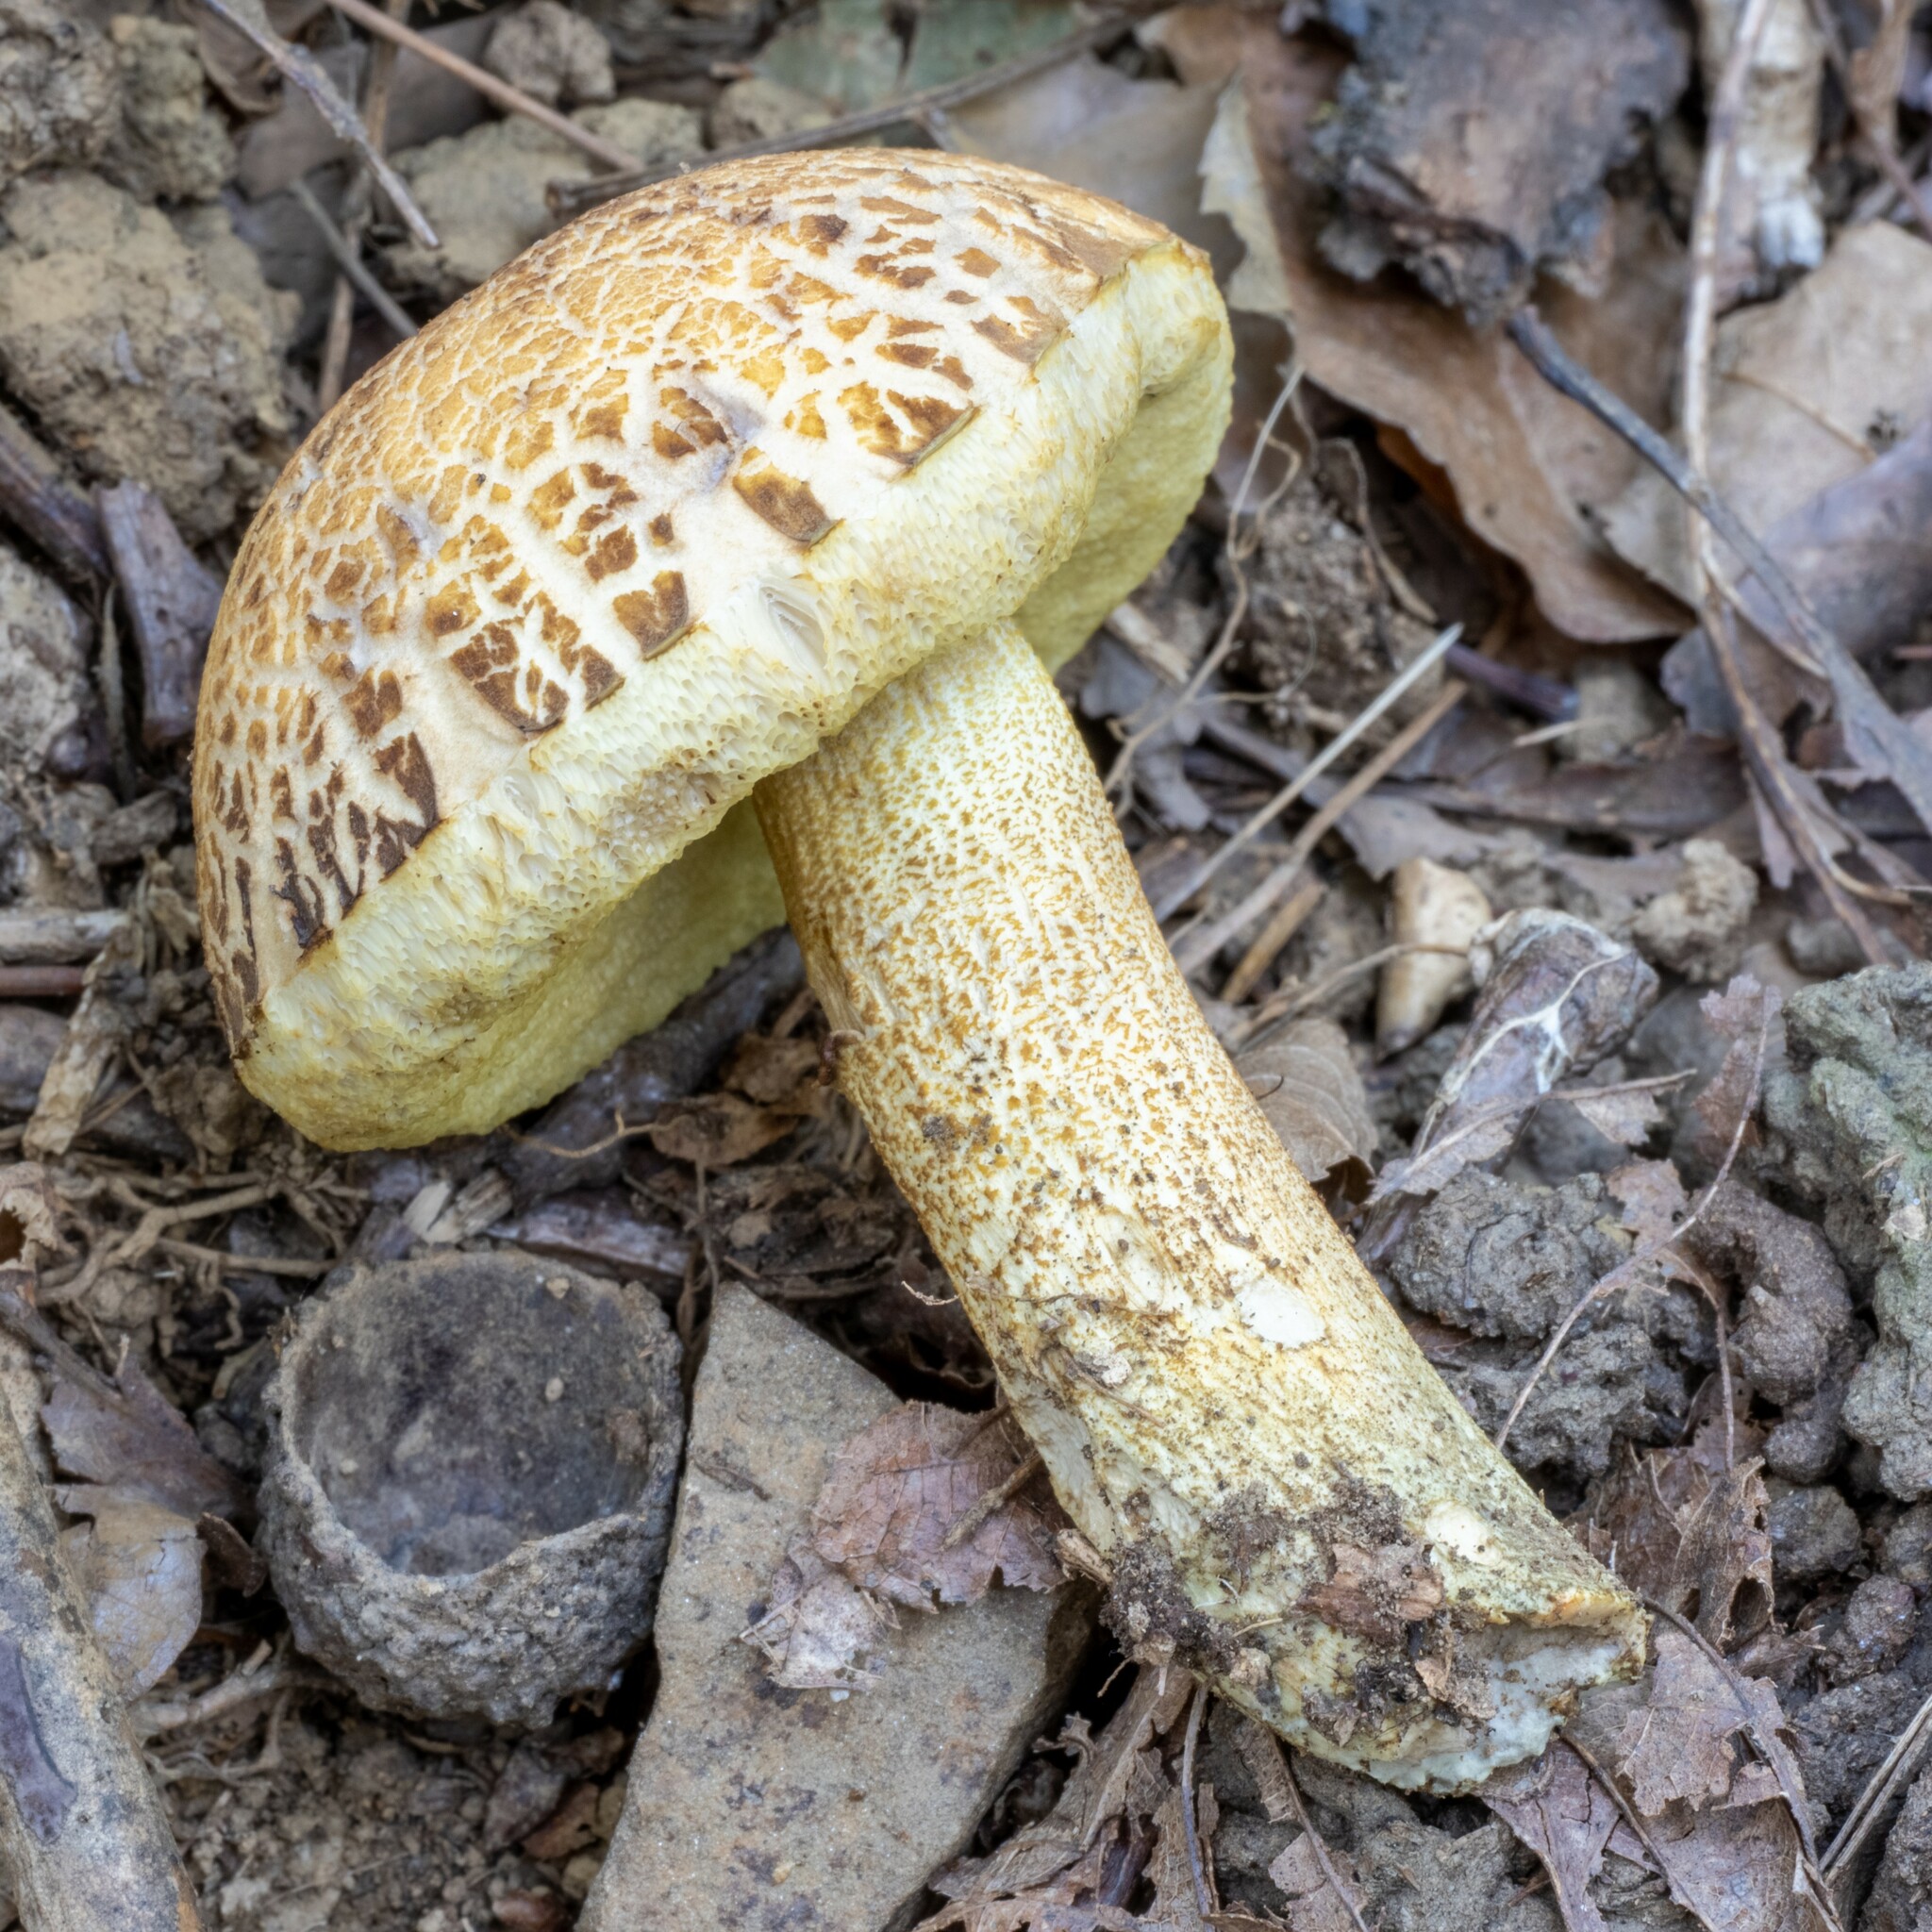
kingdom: Fungi
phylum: Basidiomycota
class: Agaricomycetes
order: Boletales
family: Boletaceae
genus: Leccinellum
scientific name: Leccinellum crocipodium
